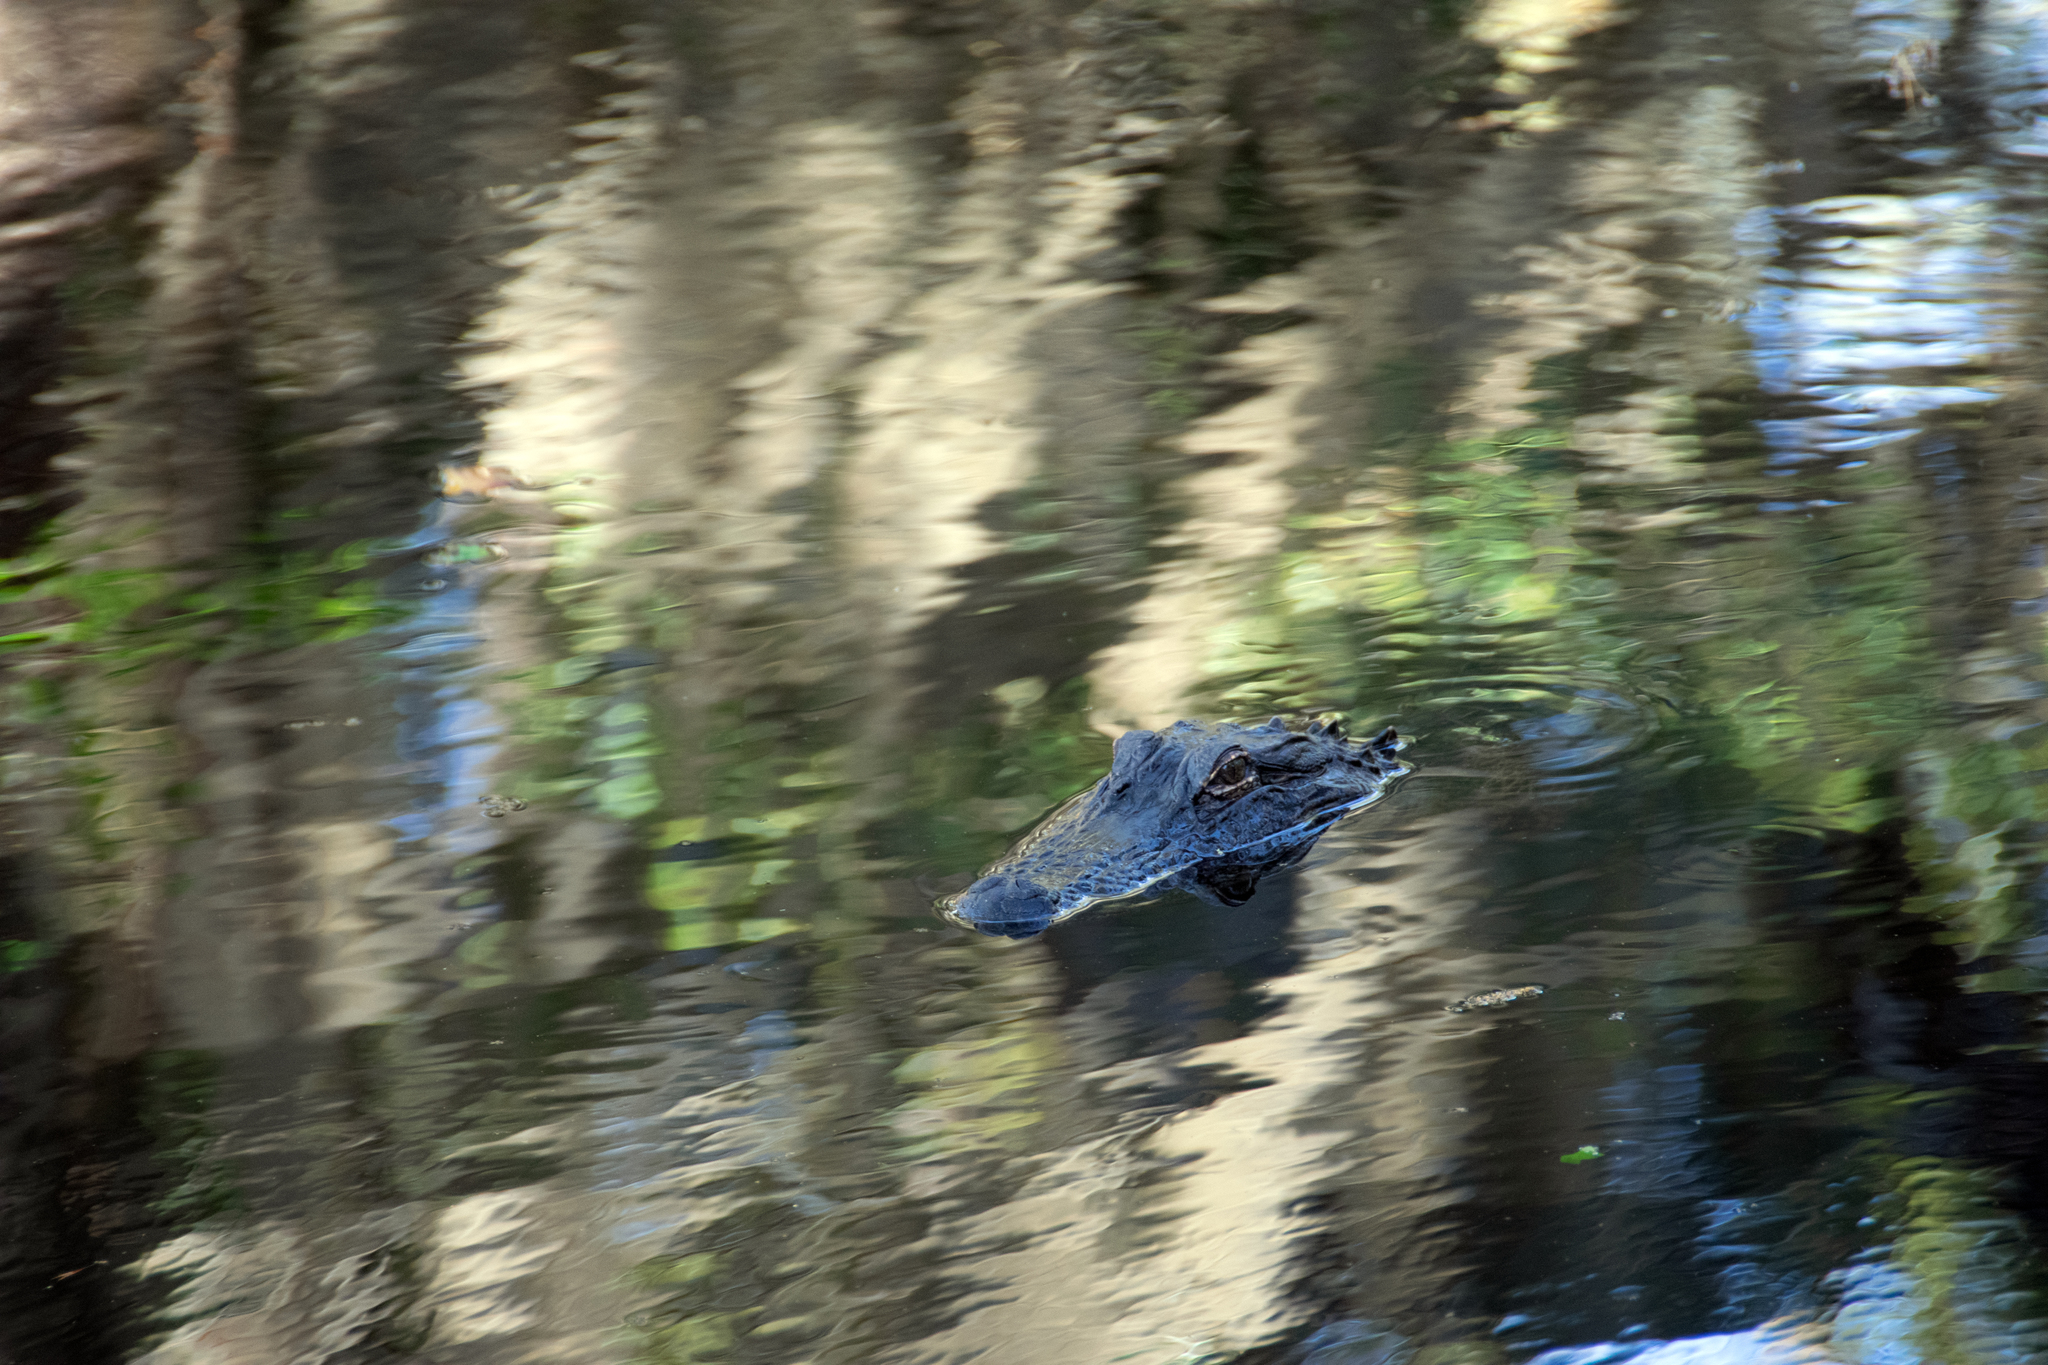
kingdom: Animalia
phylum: Chordata
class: Crocodylia
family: Alligatoridae
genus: Alligator
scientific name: Alligator mississippiensis
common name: American alligator
